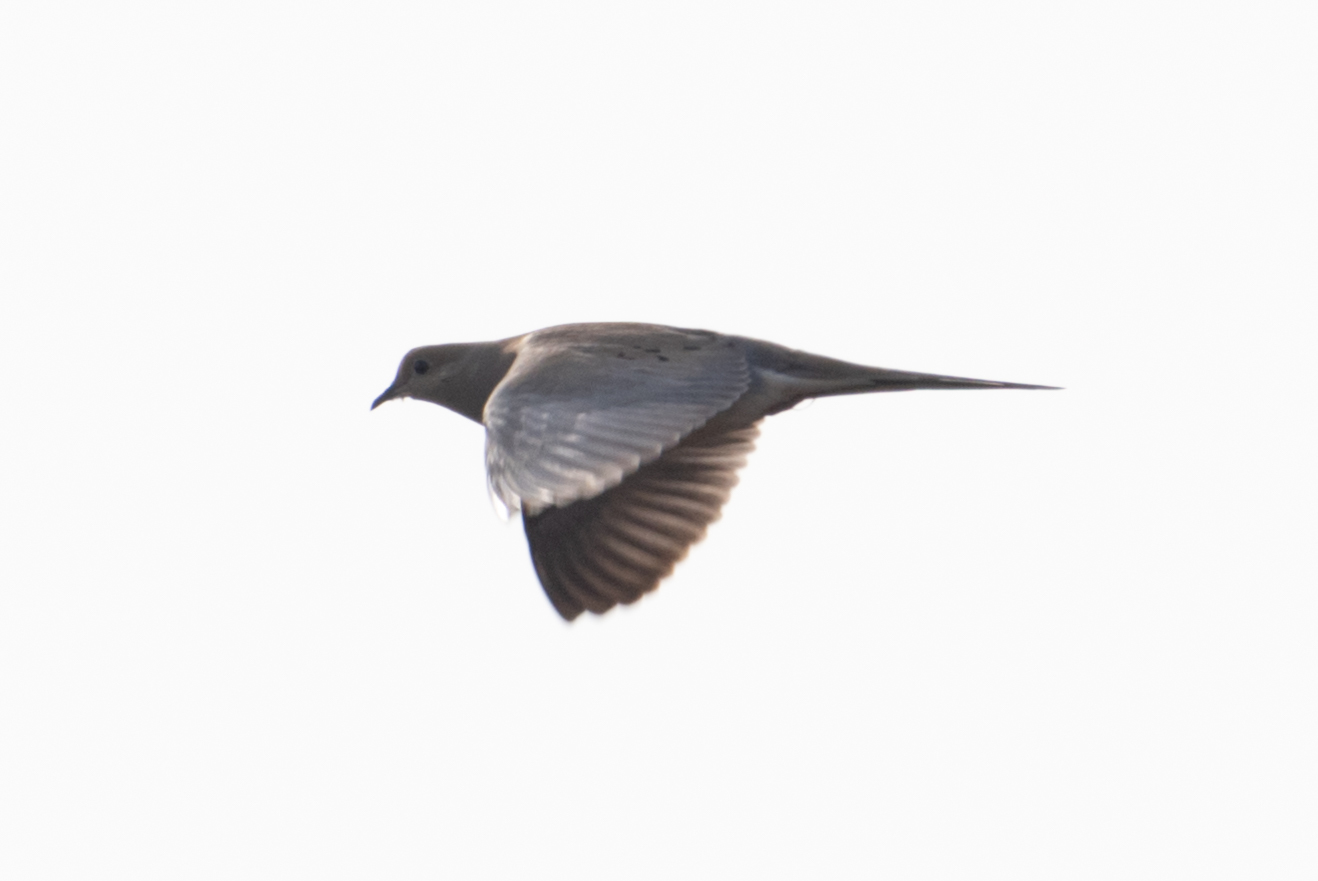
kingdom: Animalia
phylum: Chordata
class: Aves
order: Columbiformes
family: Columbidae
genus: Zenaida
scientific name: Zenaida macroura
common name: Mourning dove
